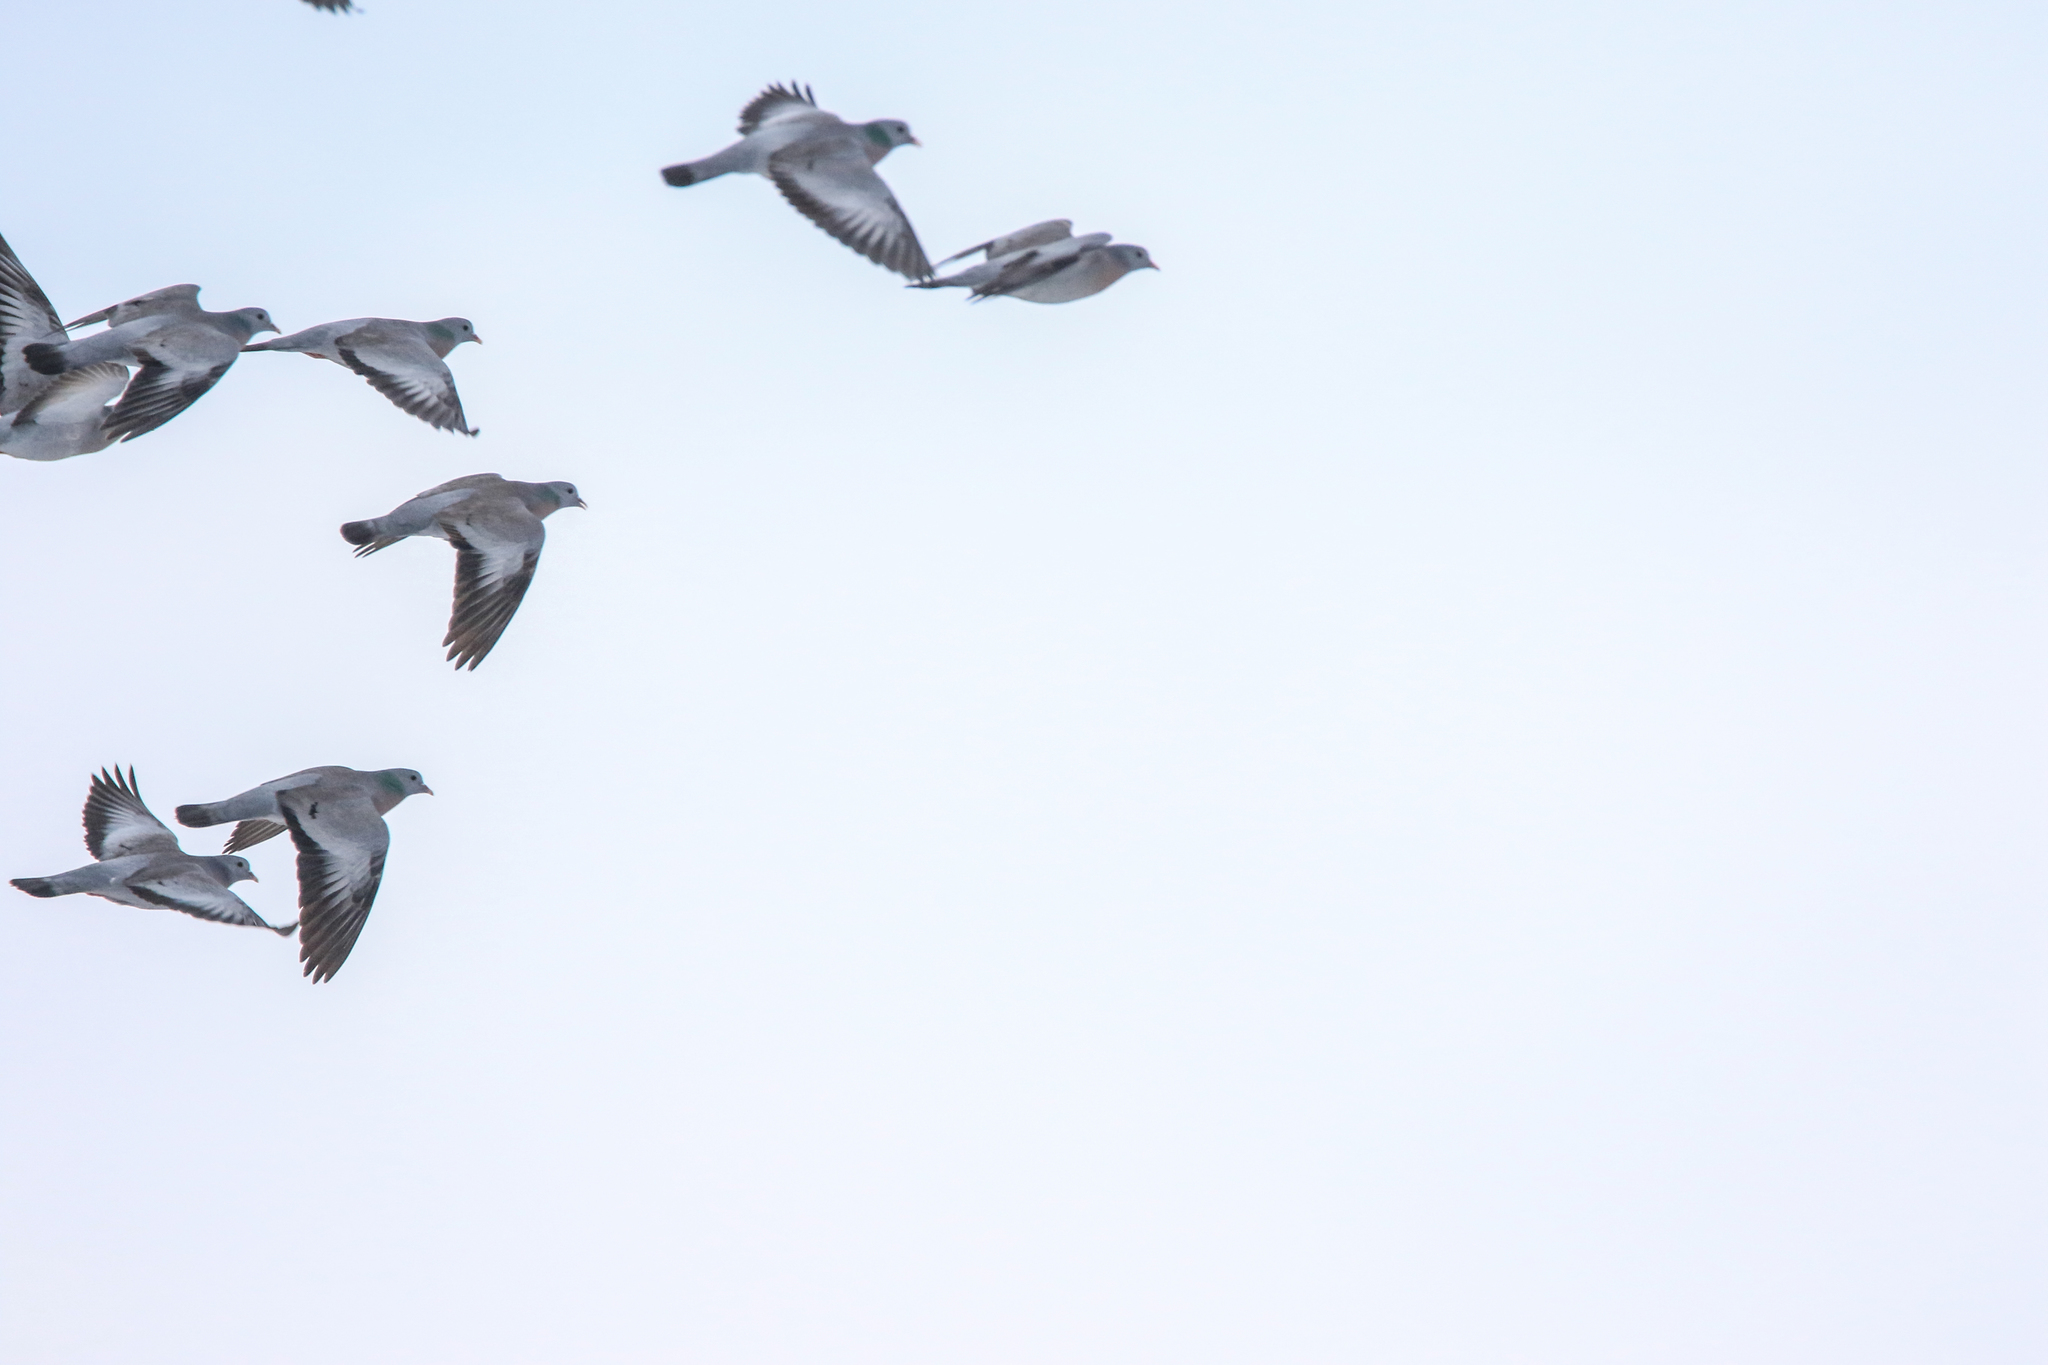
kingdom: Animalia
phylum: Chordata
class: Aves
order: Columbiformes
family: Columbidae
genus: Columba
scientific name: Columba oenas
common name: Stock dove
